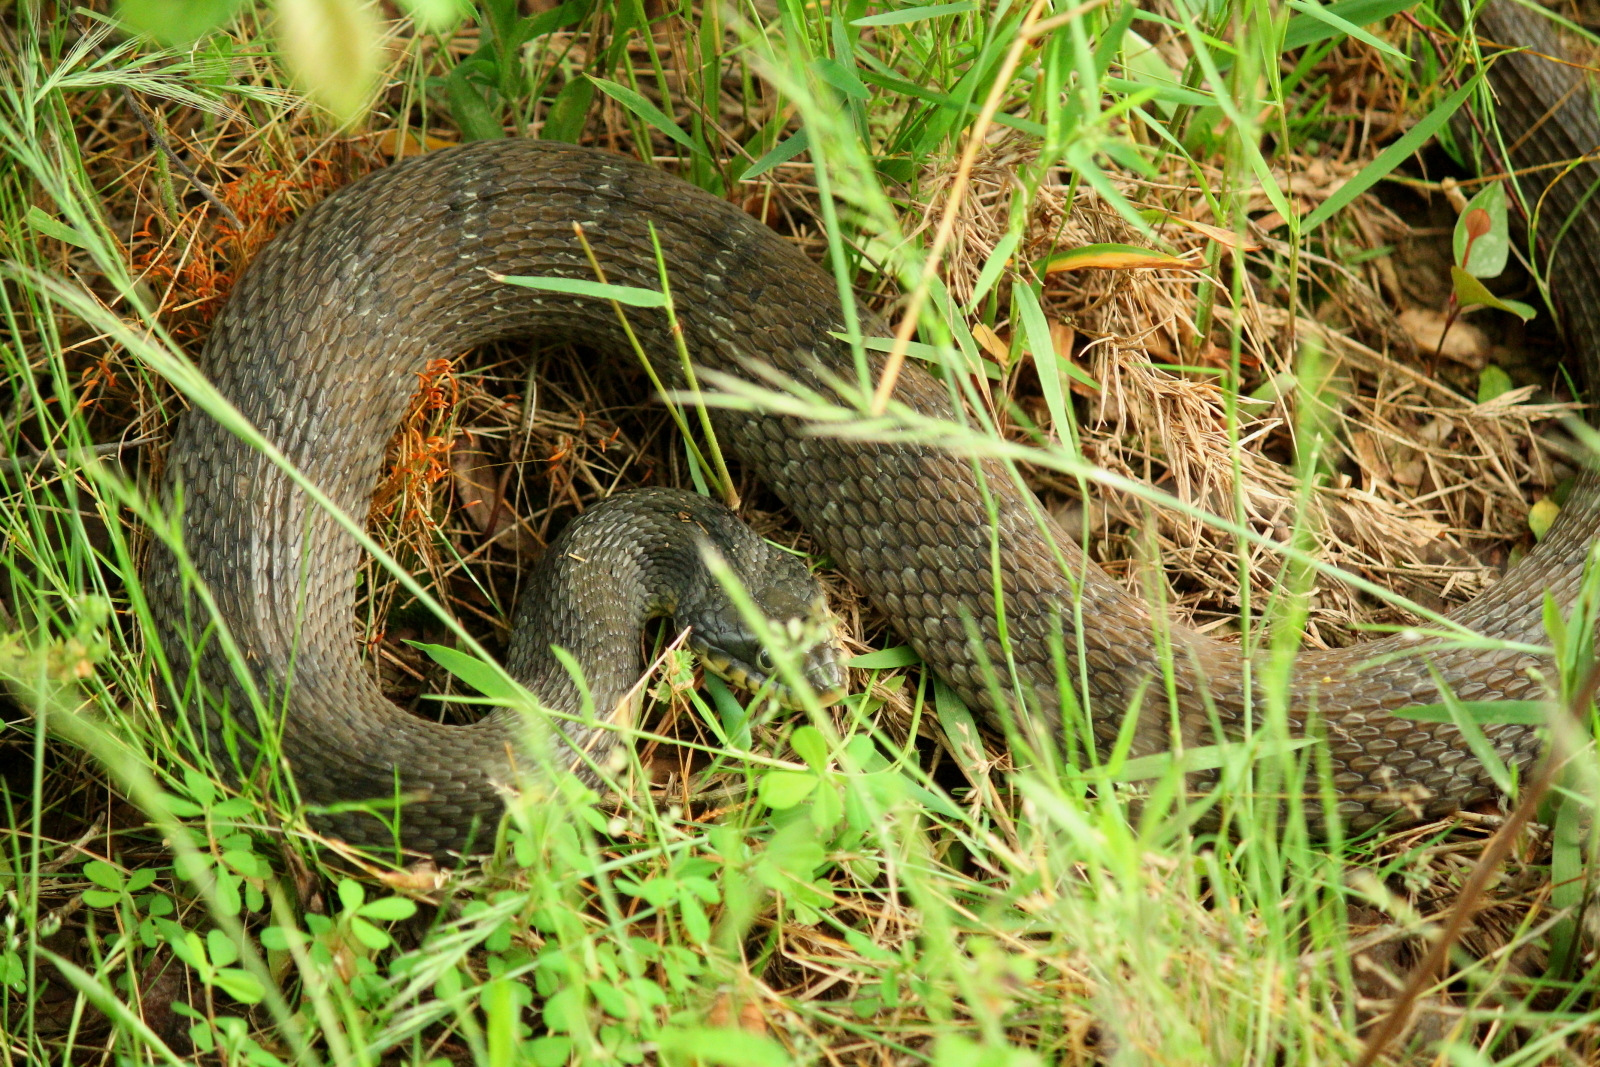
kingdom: Animalia
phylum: Chordata
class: Squamata
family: Colubridae
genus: Nerodia
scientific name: Nerodia erythrogaster
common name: Plainbelly water snake
